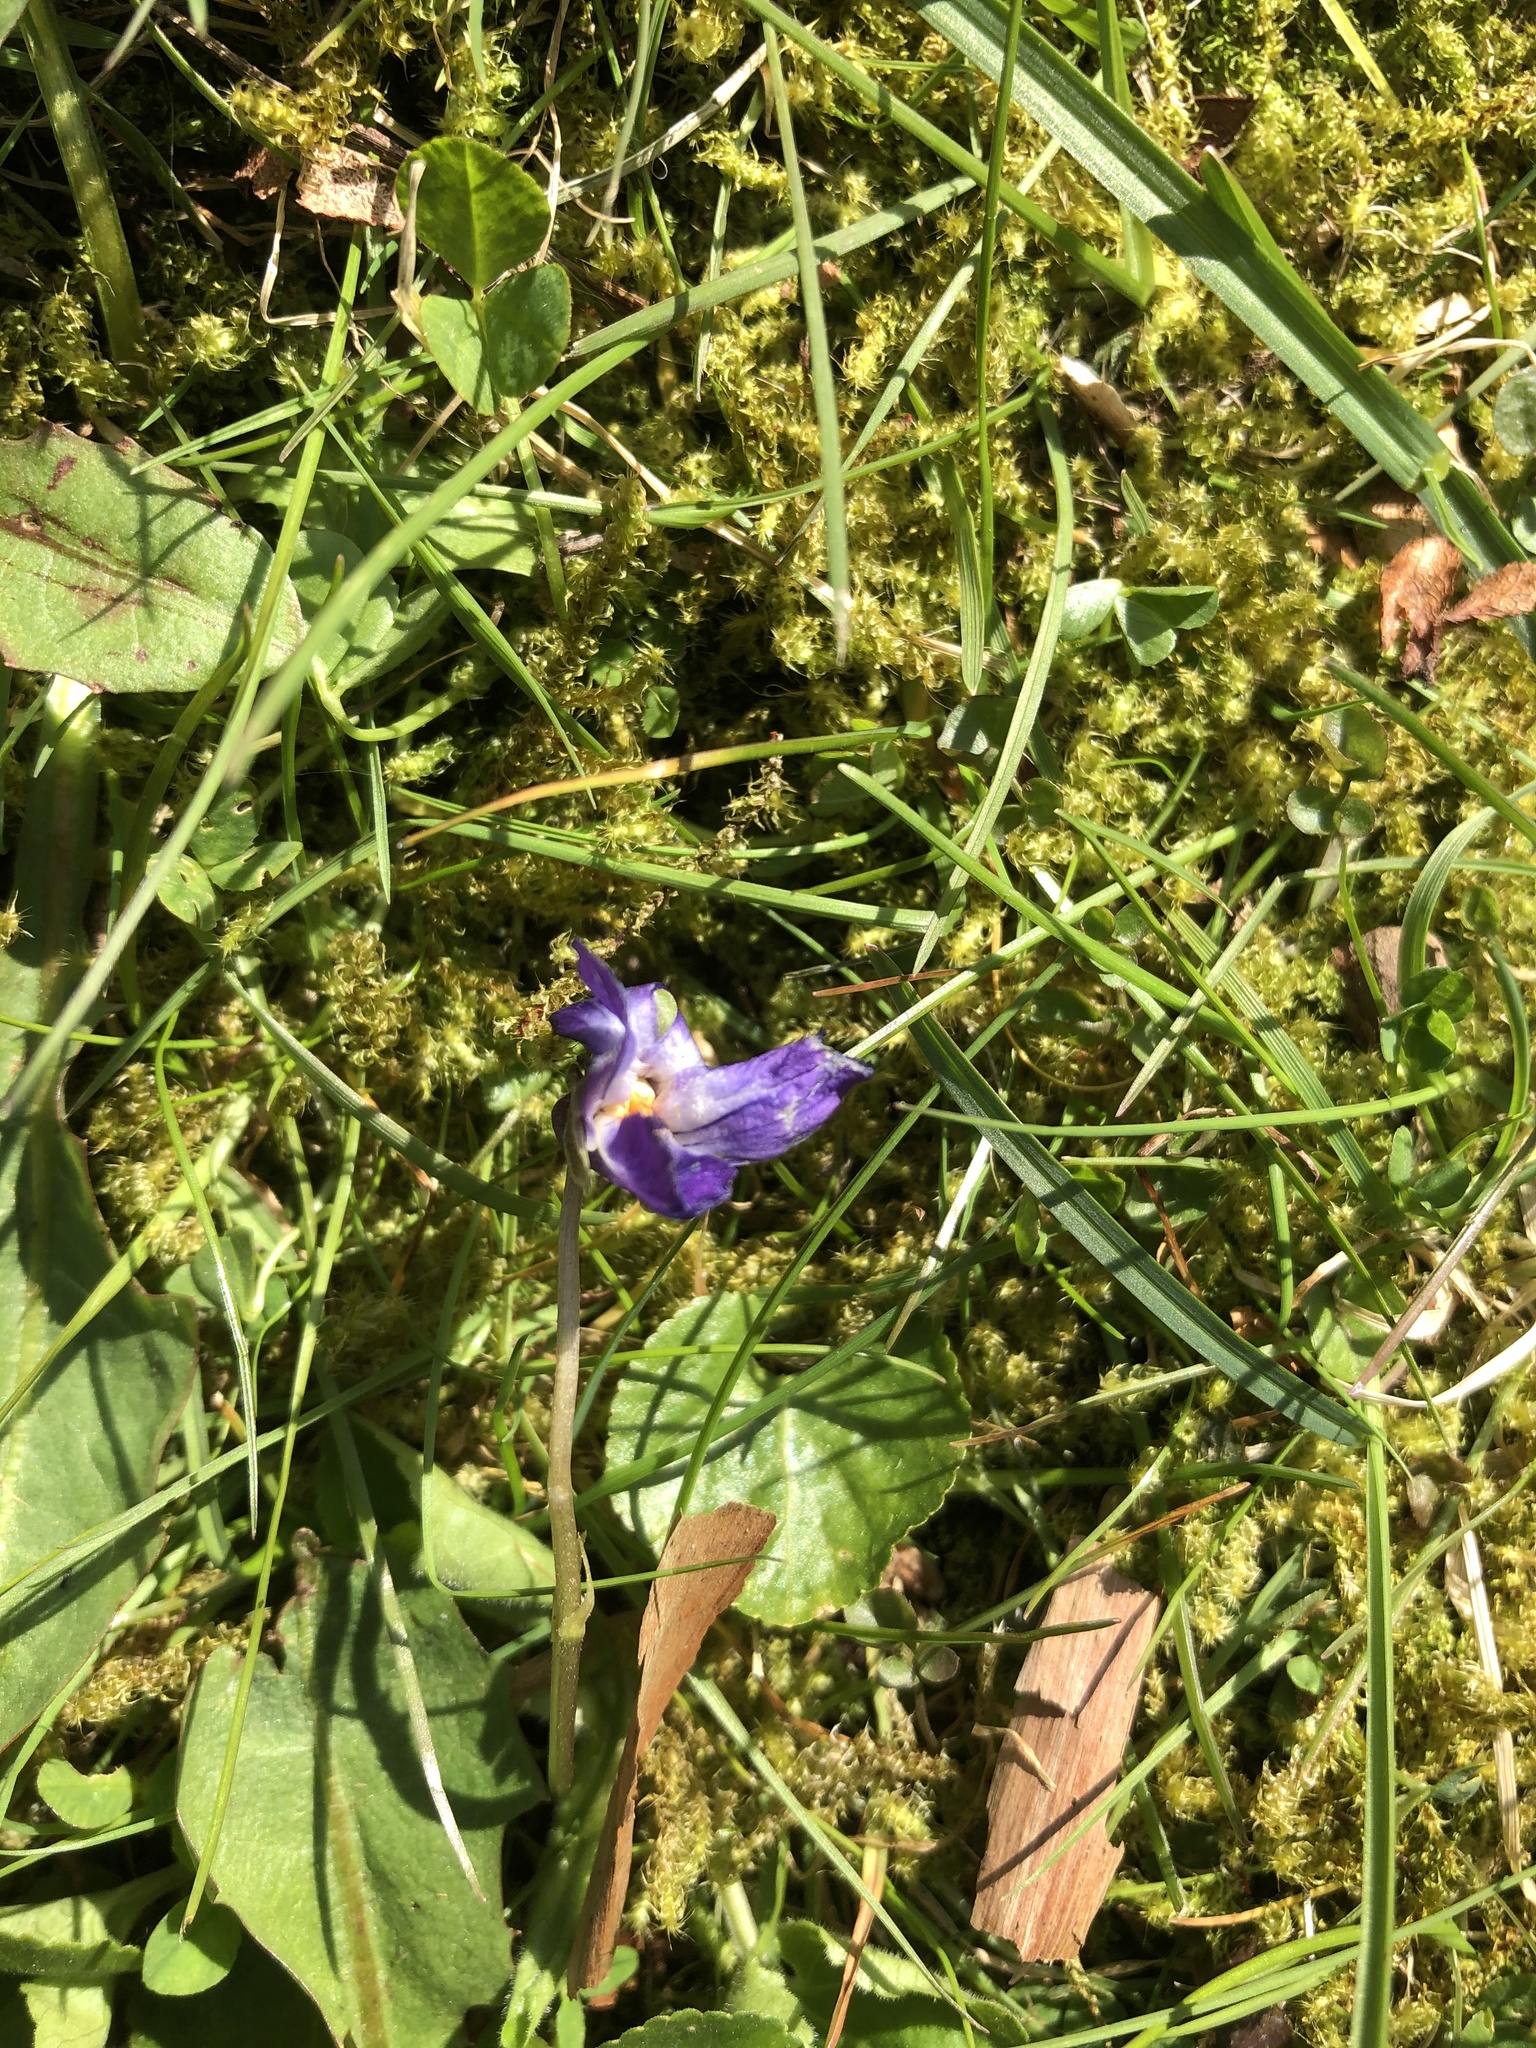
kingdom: Plantae
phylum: Tracheophyta
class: Magnoliopsida
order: Malpighiales
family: Violaceae
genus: Viola
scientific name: Viola odorata
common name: Sweet violet
